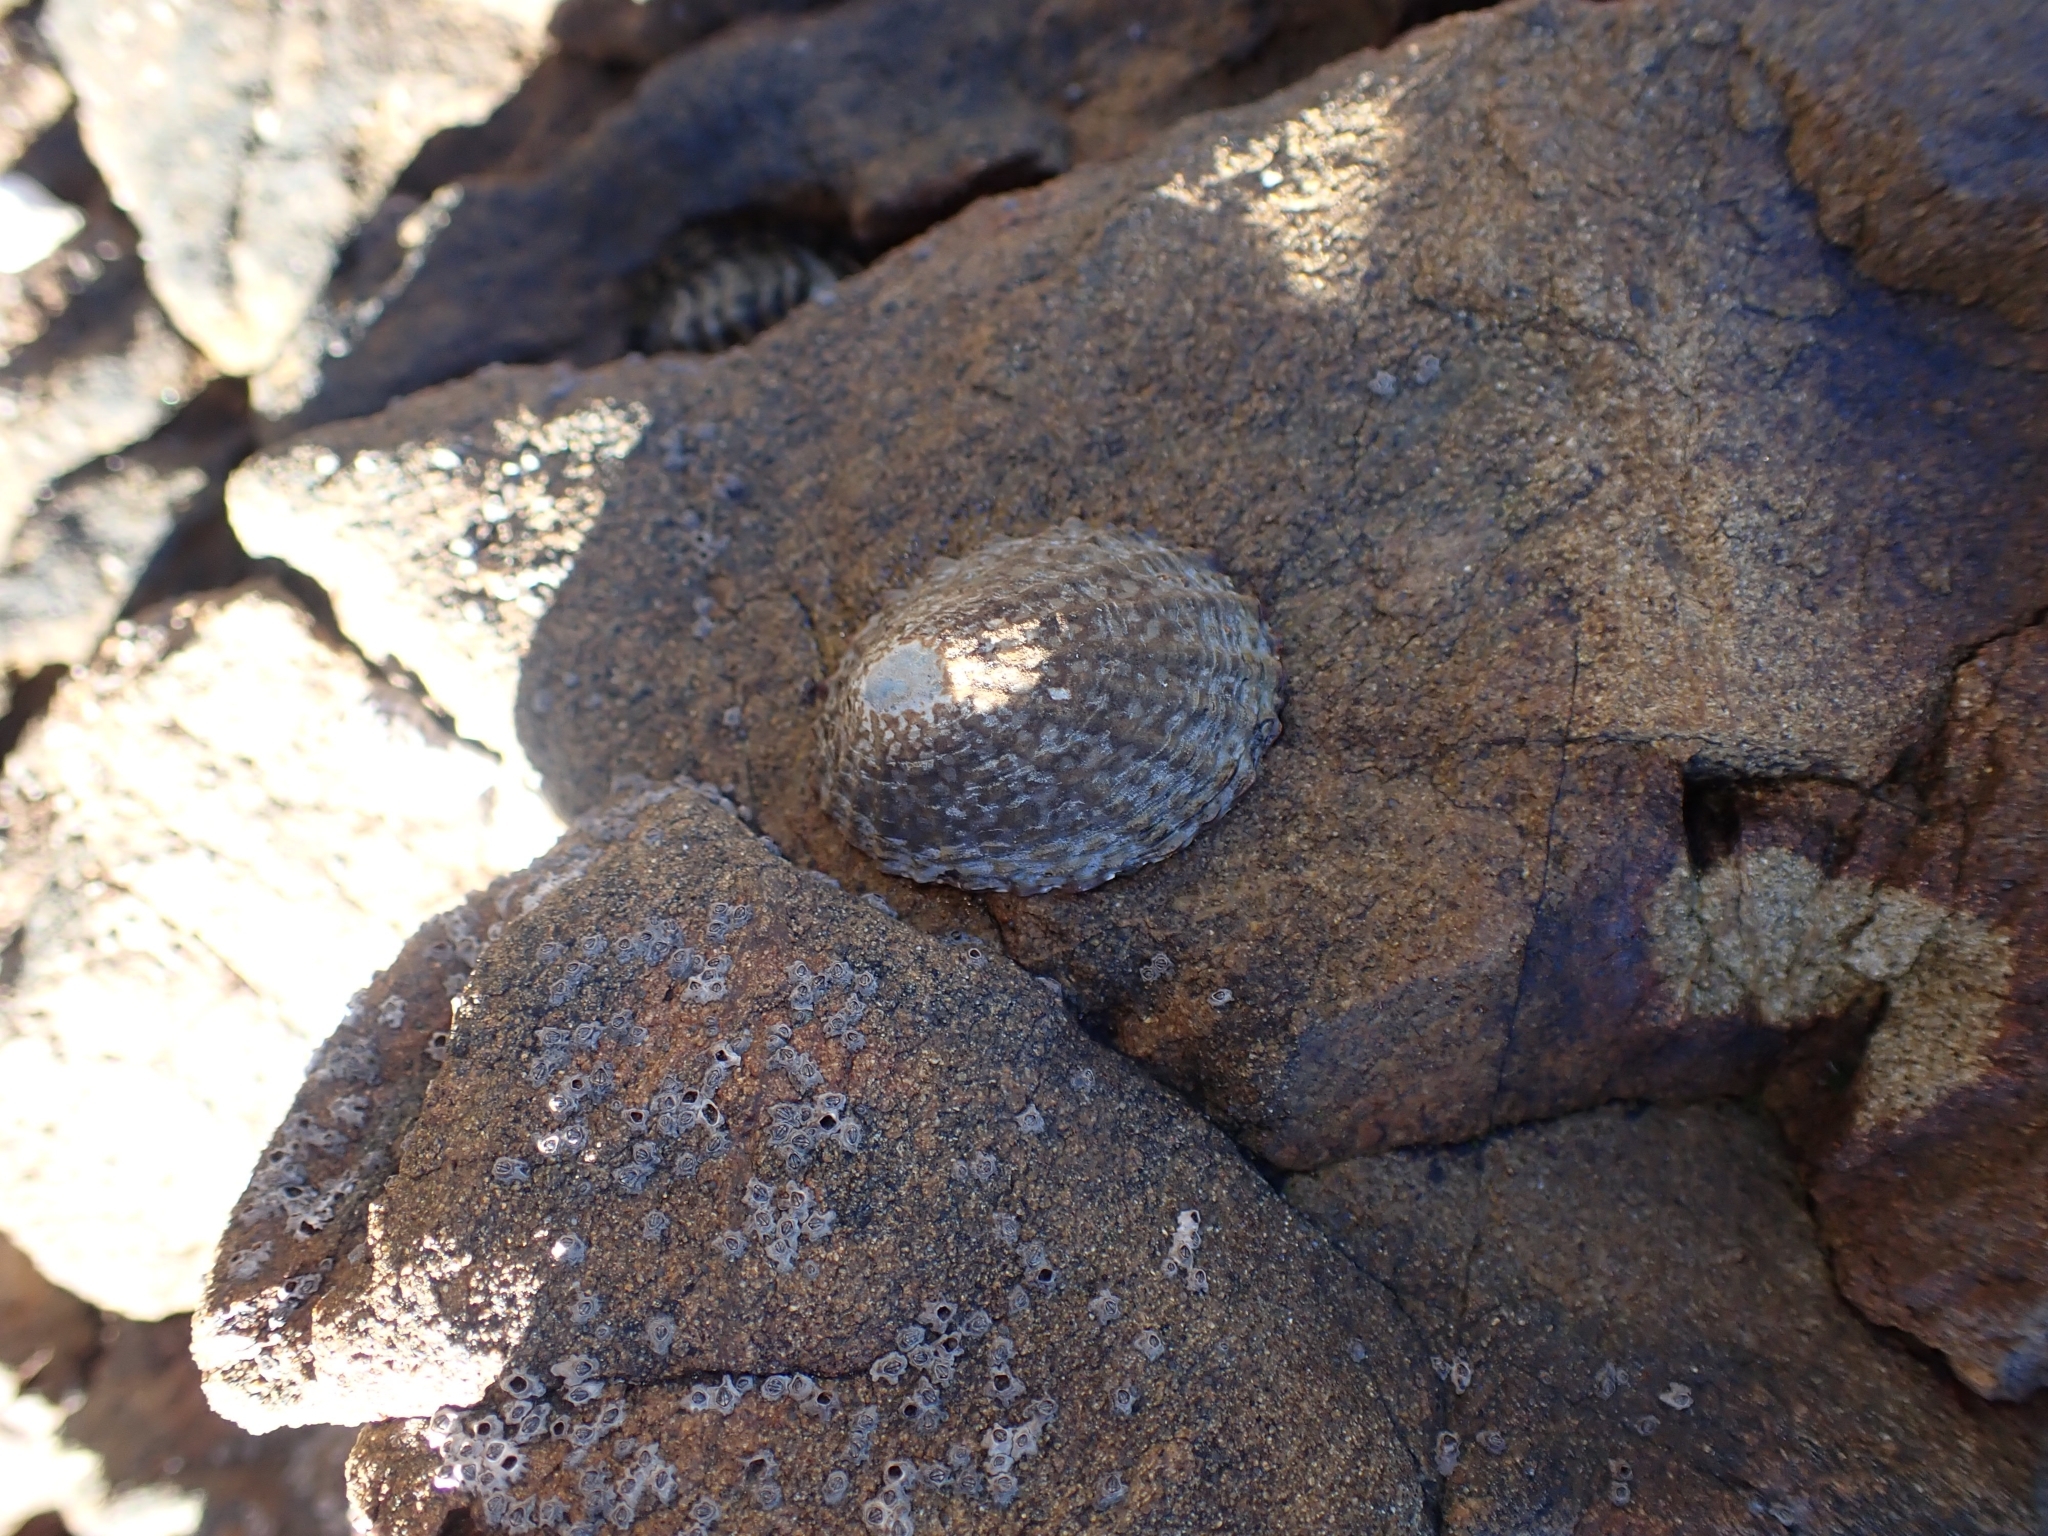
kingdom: Animalia
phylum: Mollusca
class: Gastropoda
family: Nacellidae
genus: Cellana
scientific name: Cellana denticulata
